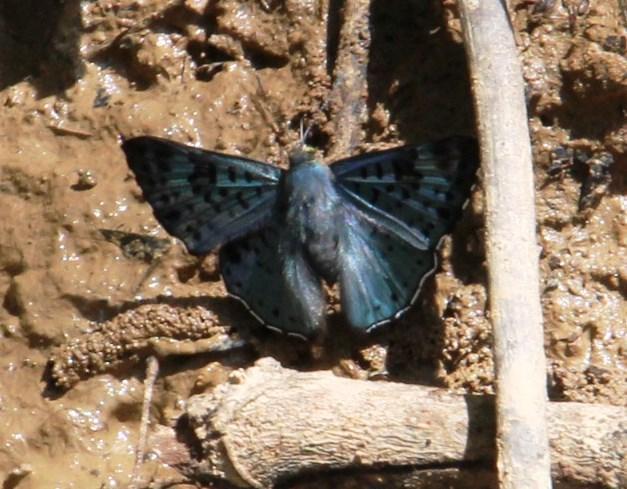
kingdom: Animalia
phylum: Arthropoda
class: Insecta
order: Lepidoptera
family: Riodinidae
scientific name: Riodinidae
